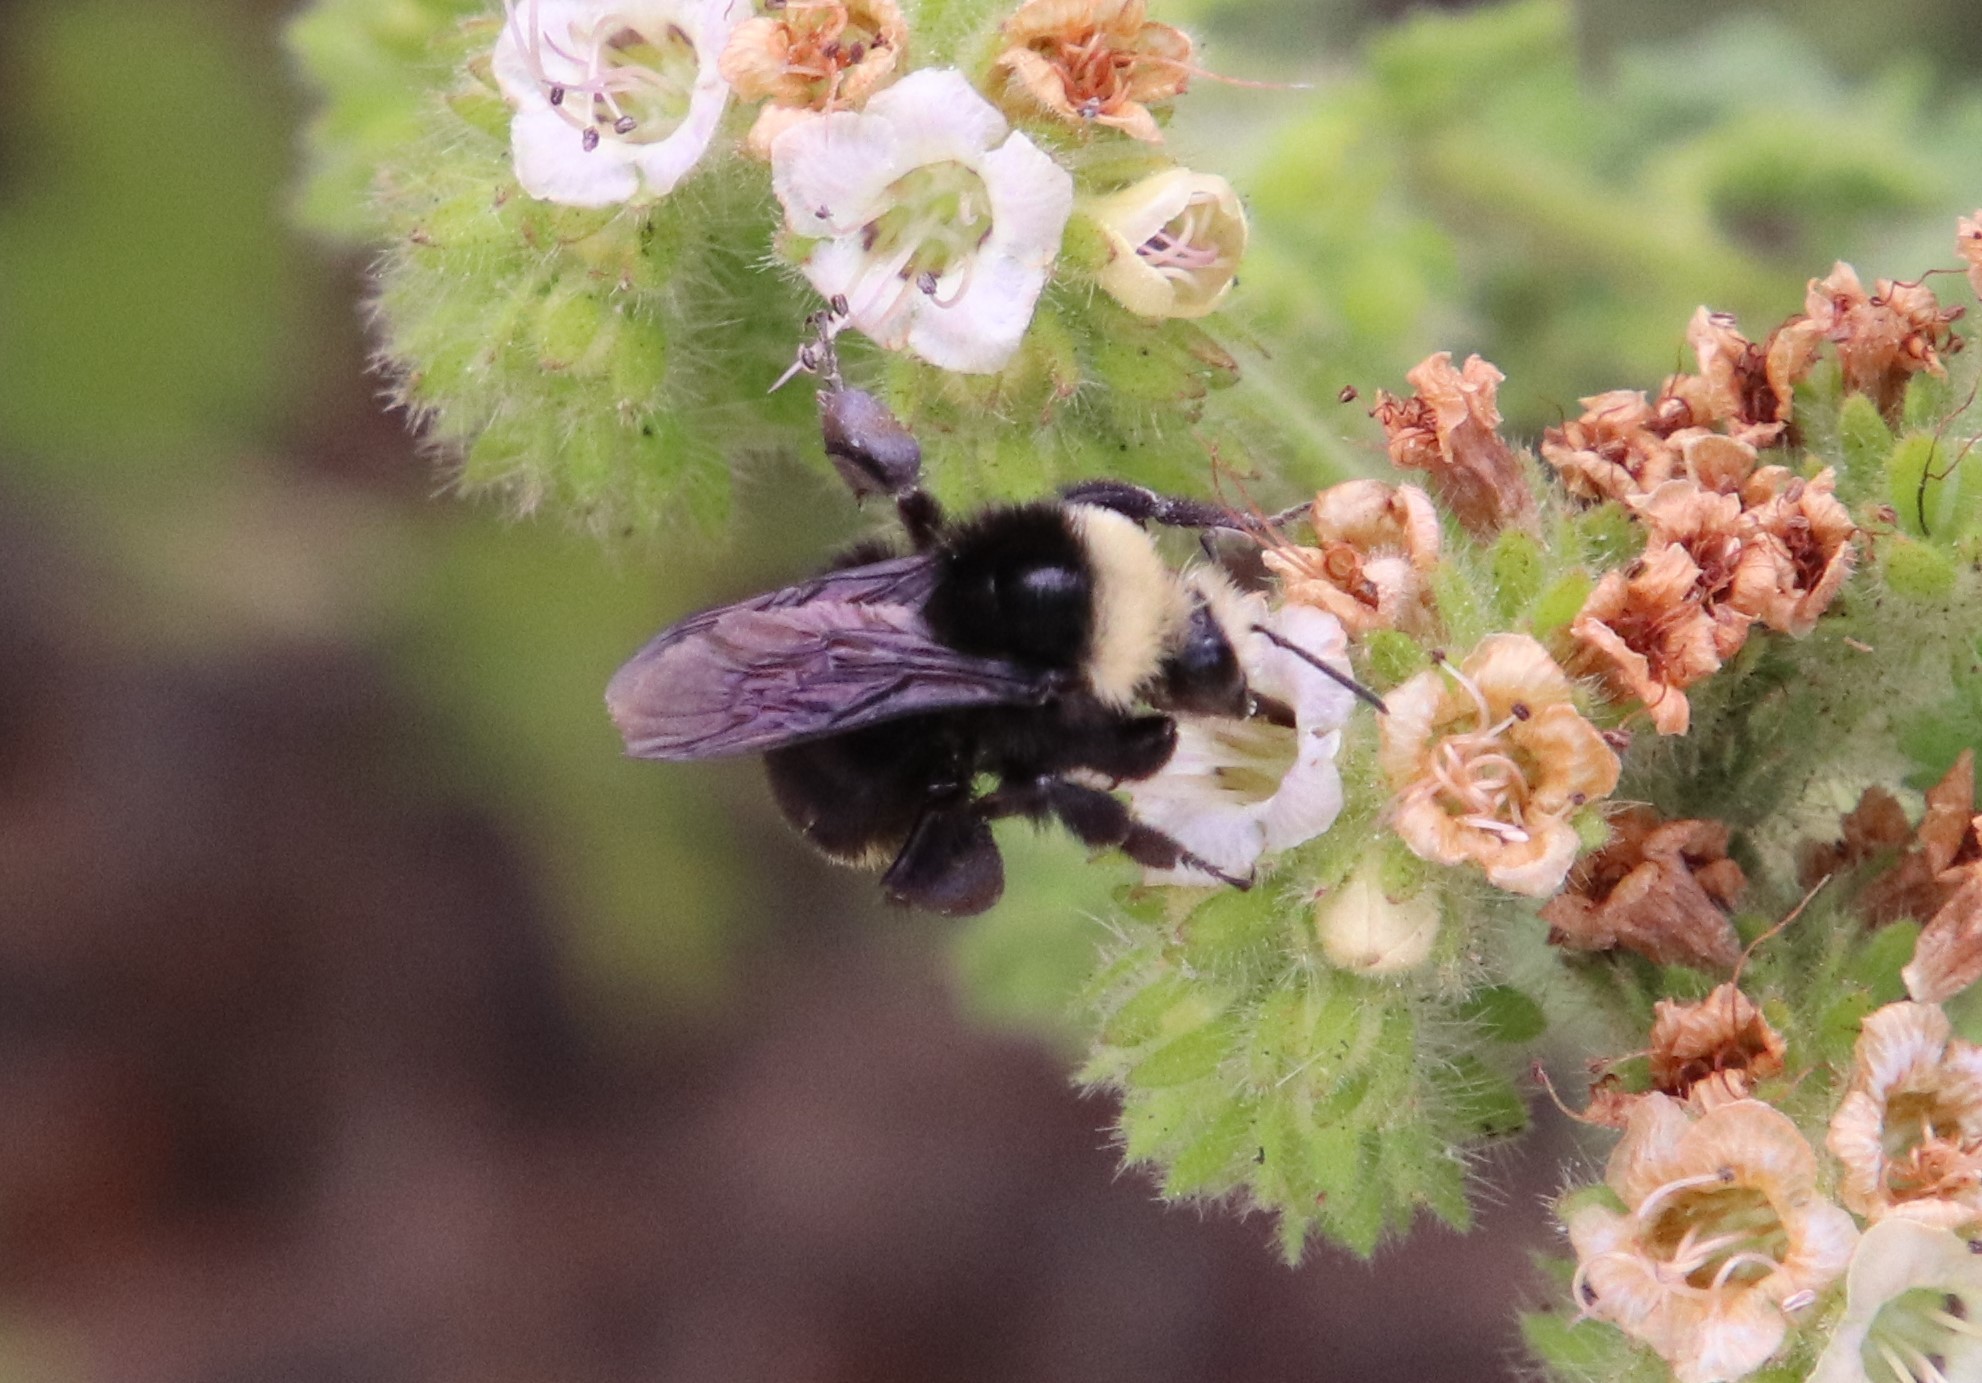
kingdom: Animalia
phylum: Arthropoda
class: Insecta
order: Hymenoptera
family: Apidae
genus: Bombus
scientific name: Bombus vosnesenskii
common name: Vosnesensky bumble bee
